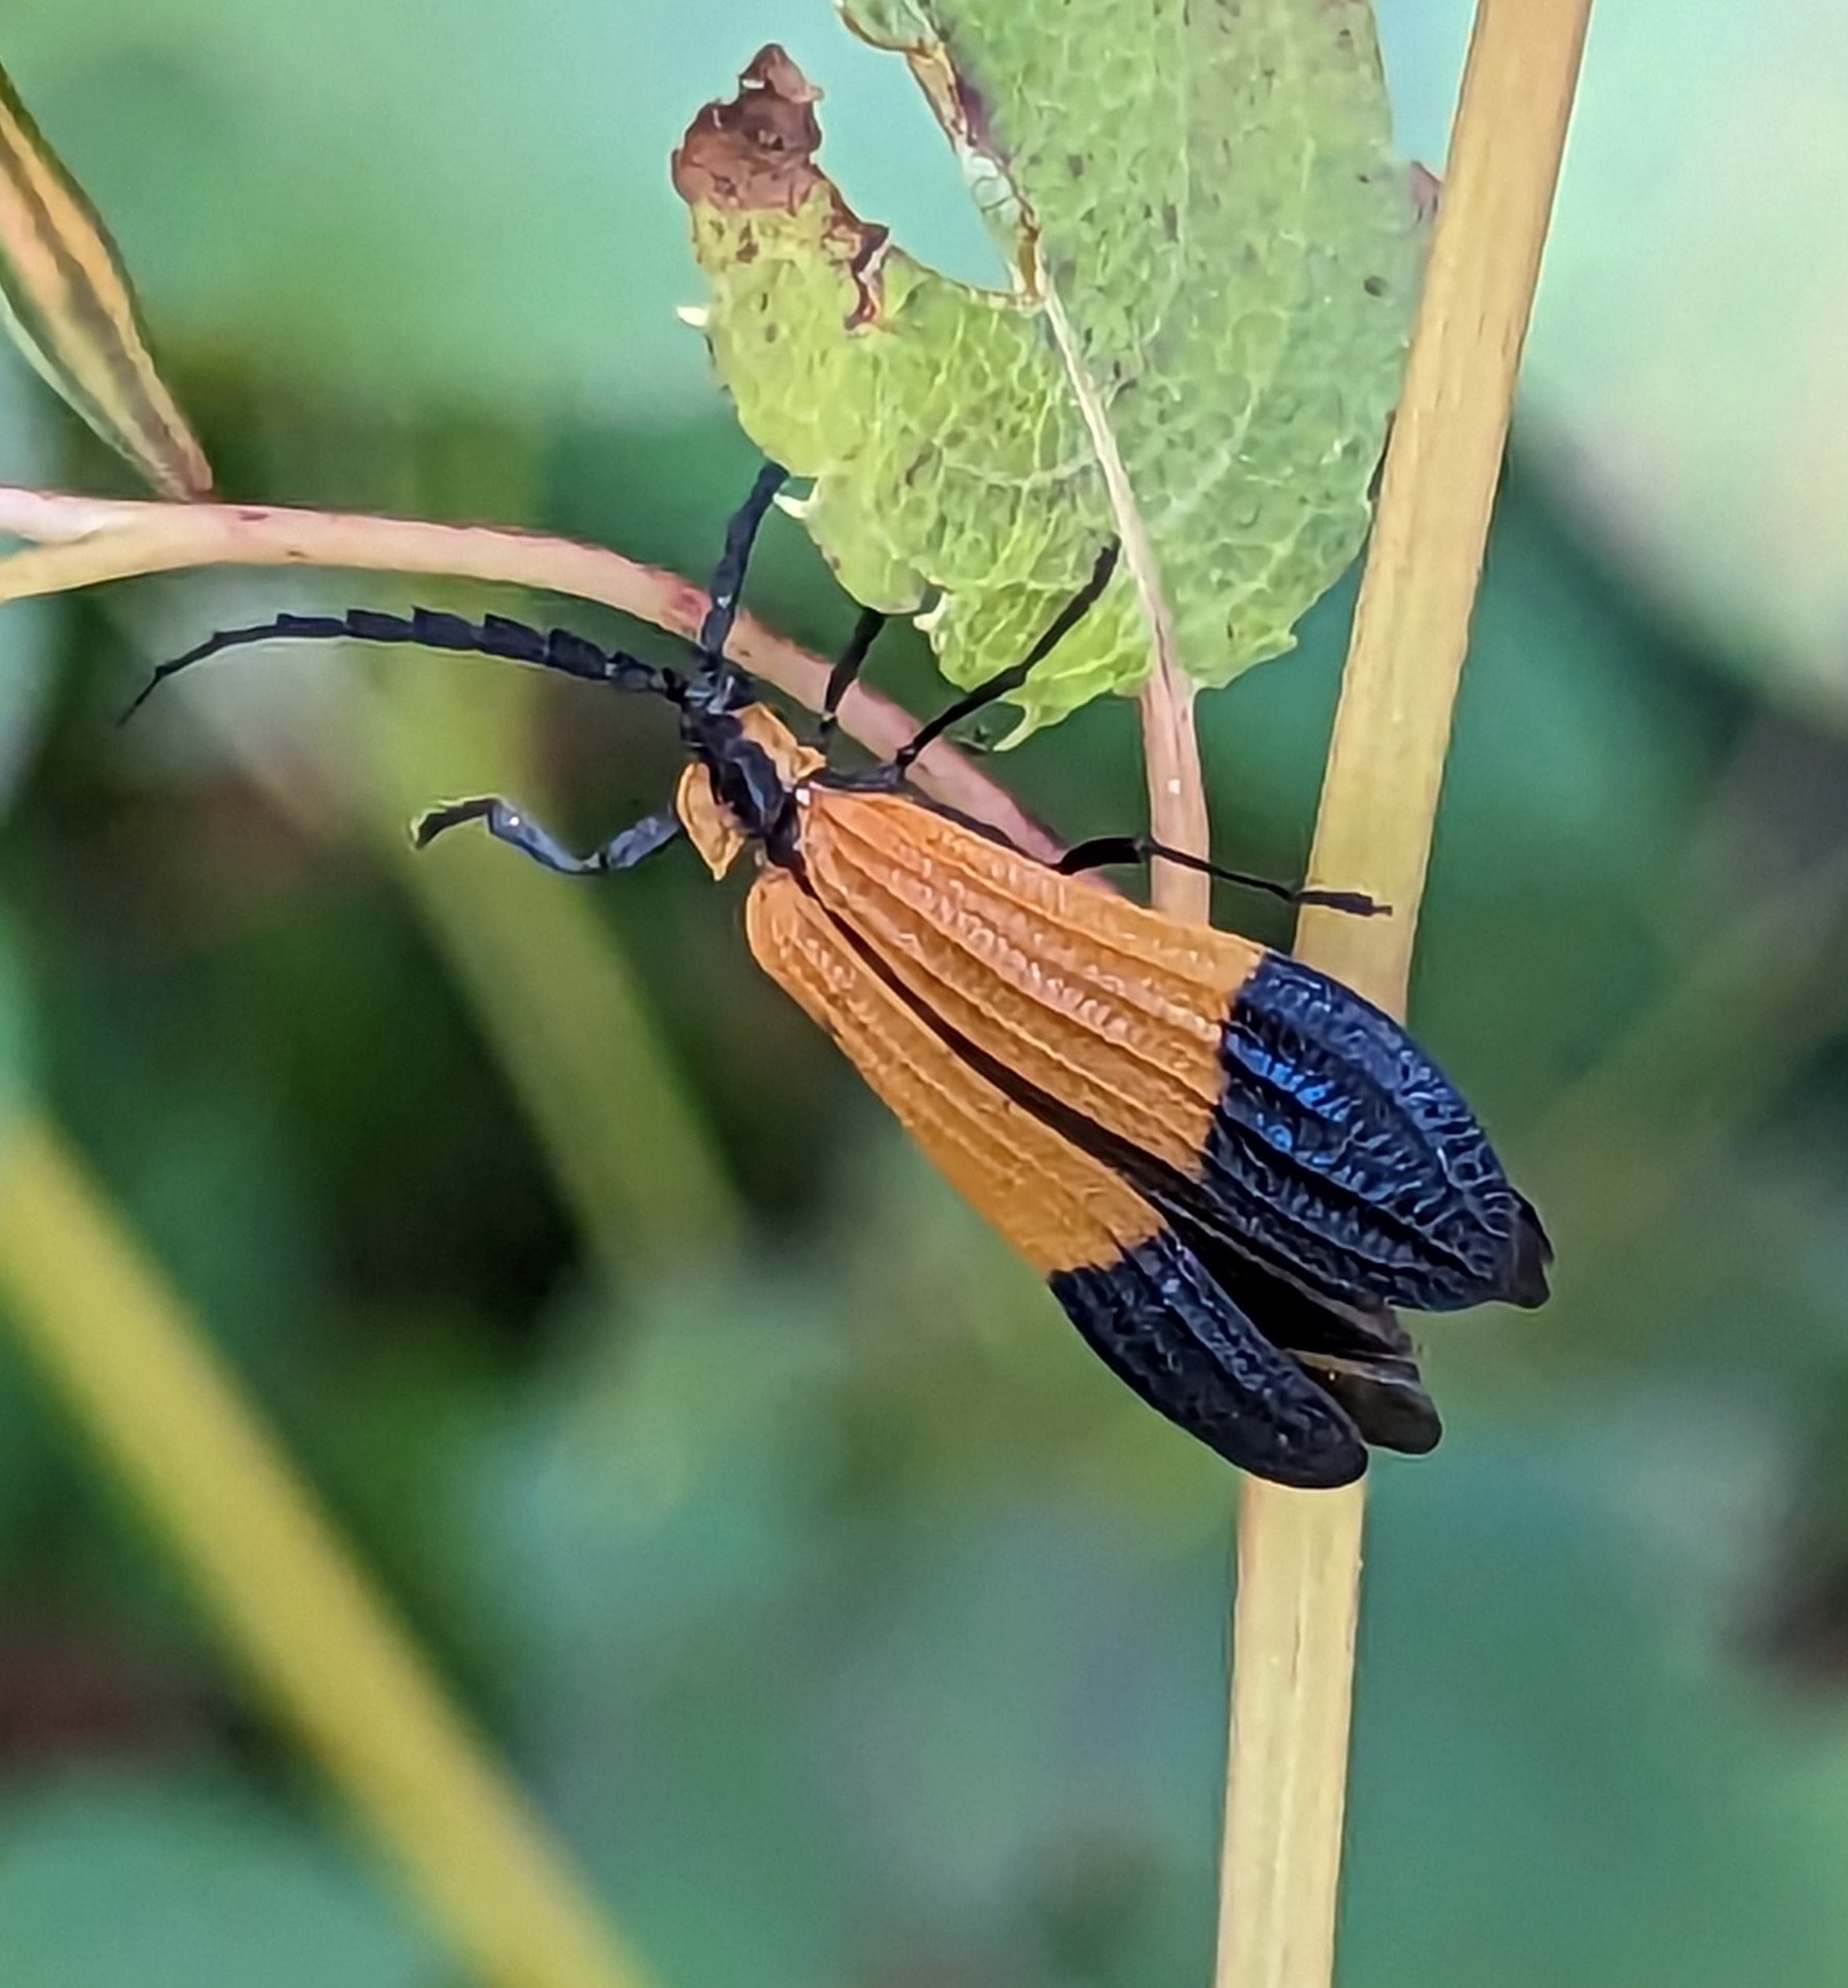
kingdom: Animalia
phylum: Arthropoda
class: Insecta
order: Coleoptera
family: Lycidae
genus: Calopteron
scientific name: Calopteron terminale
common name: End band net-winged beetle
